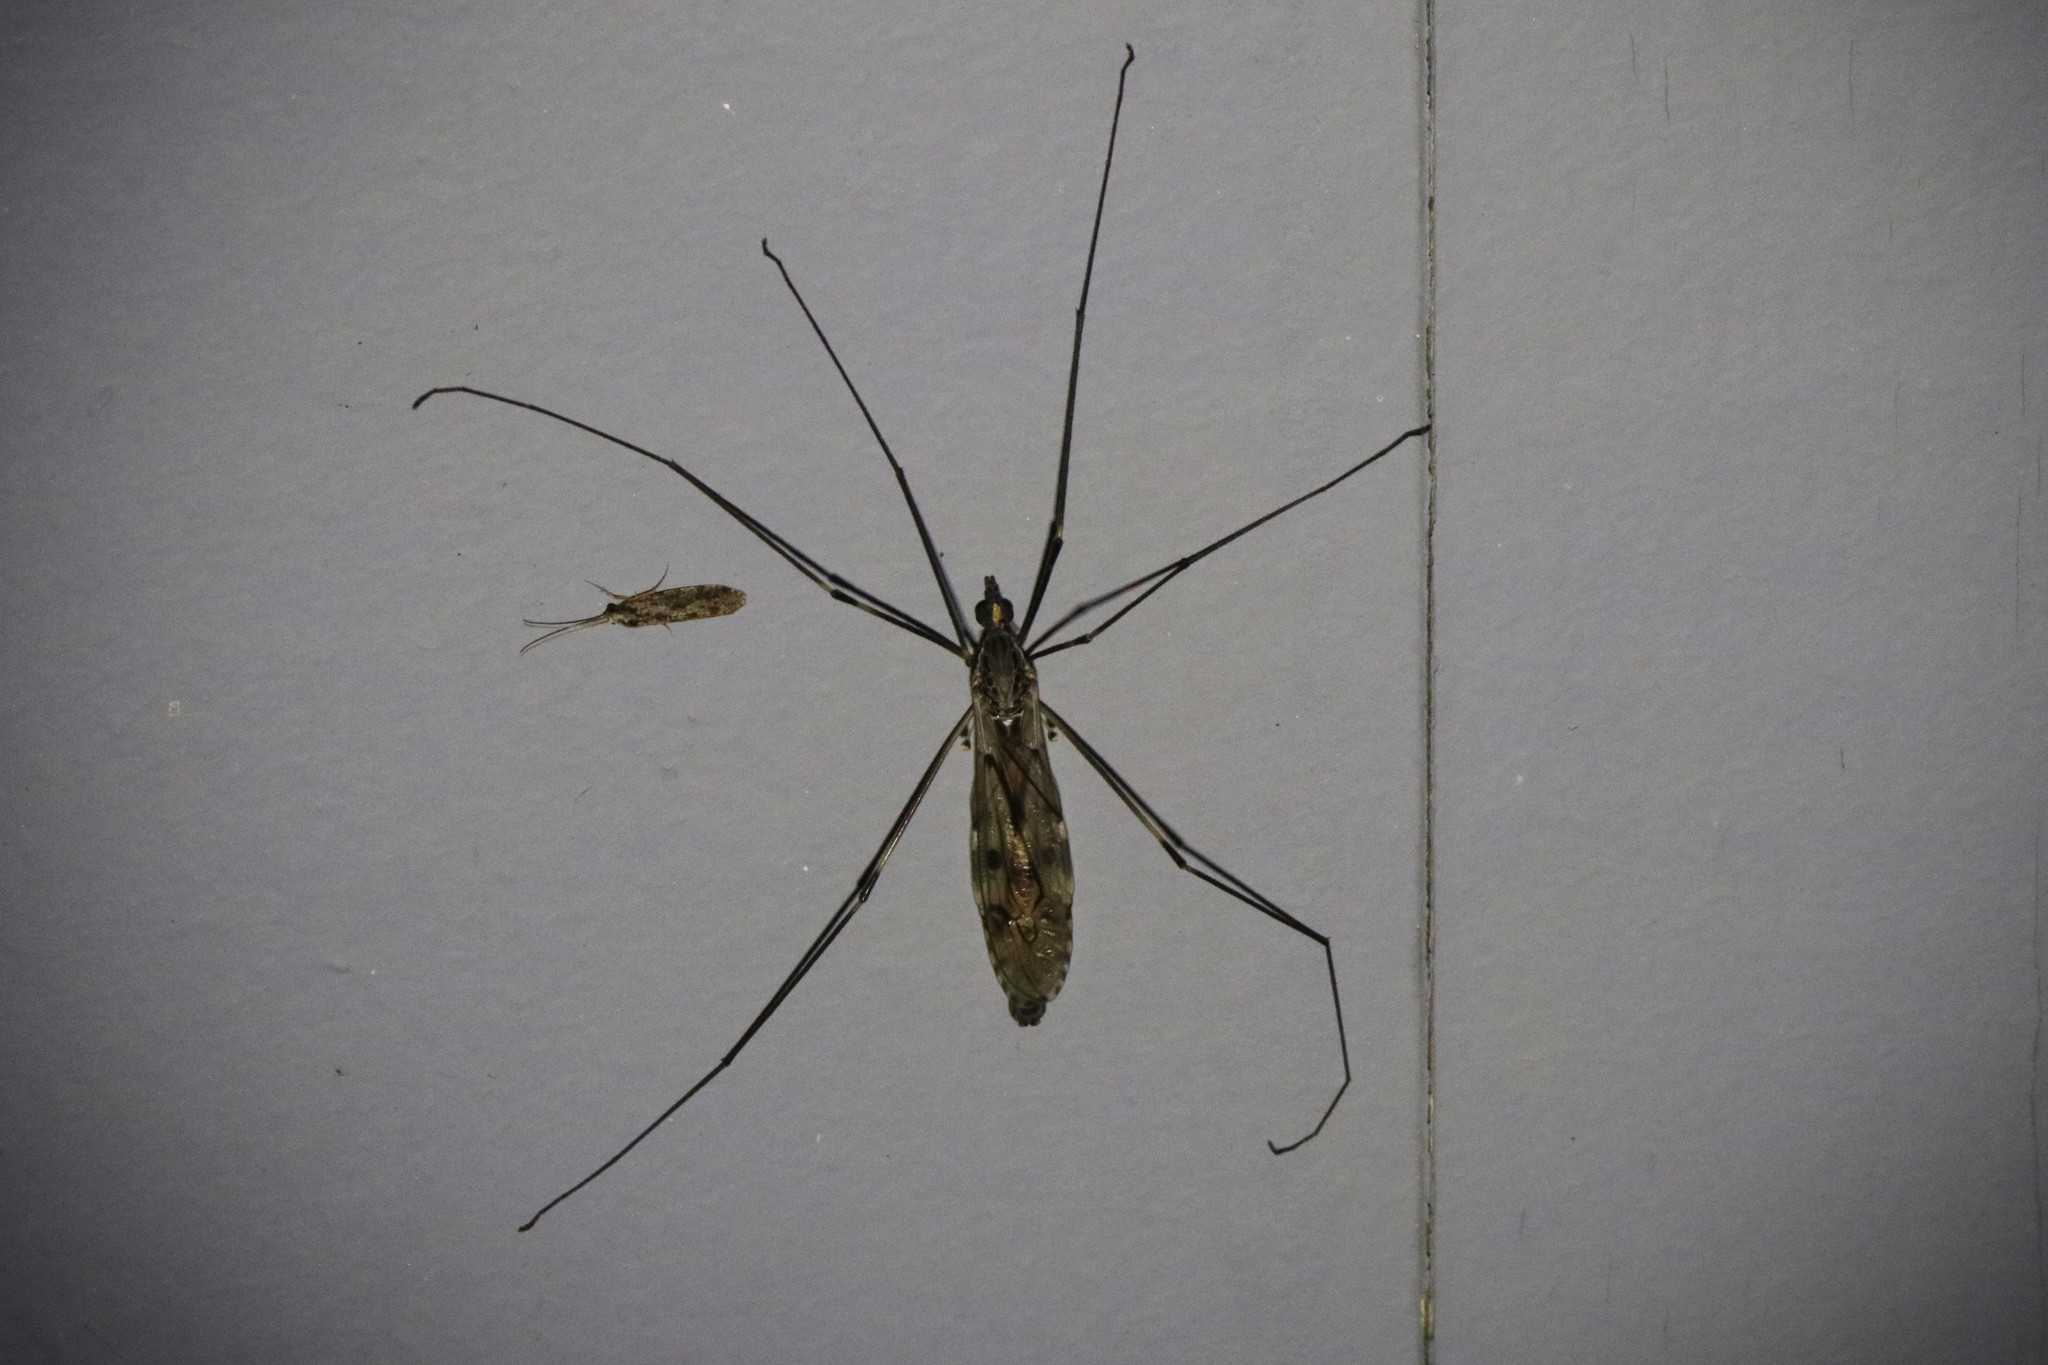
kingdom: Animalia
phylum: Arthropoda
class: Insecta
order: Diptera
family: Tipulidae
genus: Tipula
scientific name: Tipula abdominalis
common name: Giant crane fly
